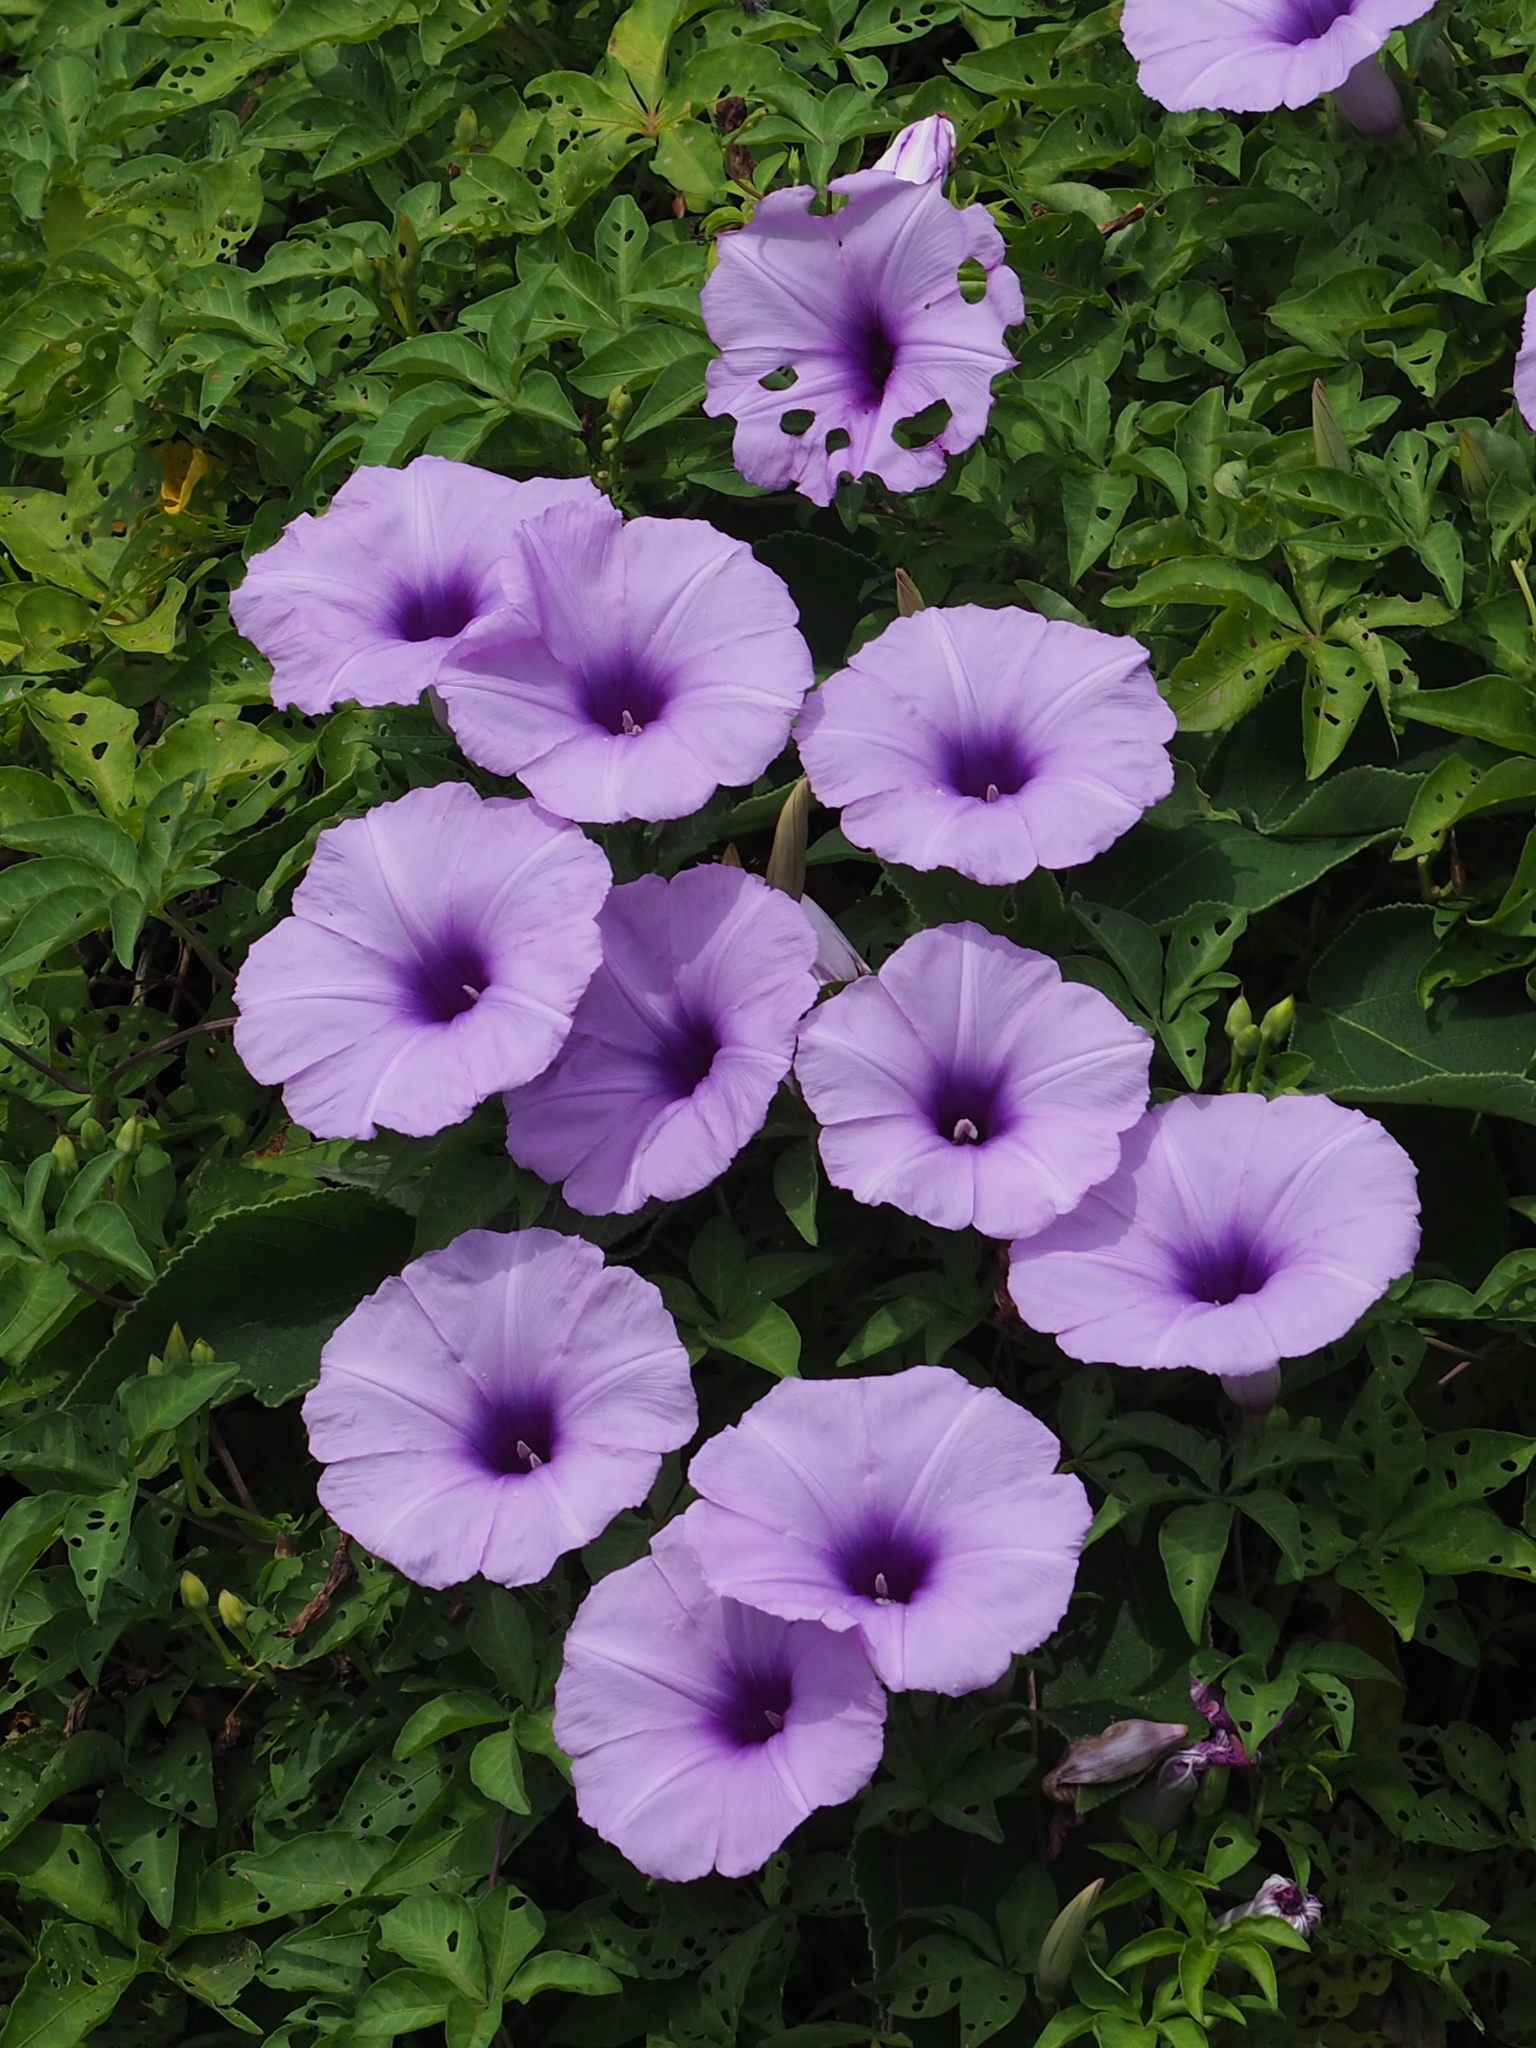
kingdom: Plantae
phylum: Tracheophyta
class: Magnoliopsida
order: Solanales
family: Convolvulaceae
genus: Ipomoea
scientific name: Ipomoea cairica
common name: Mile a minute vine
